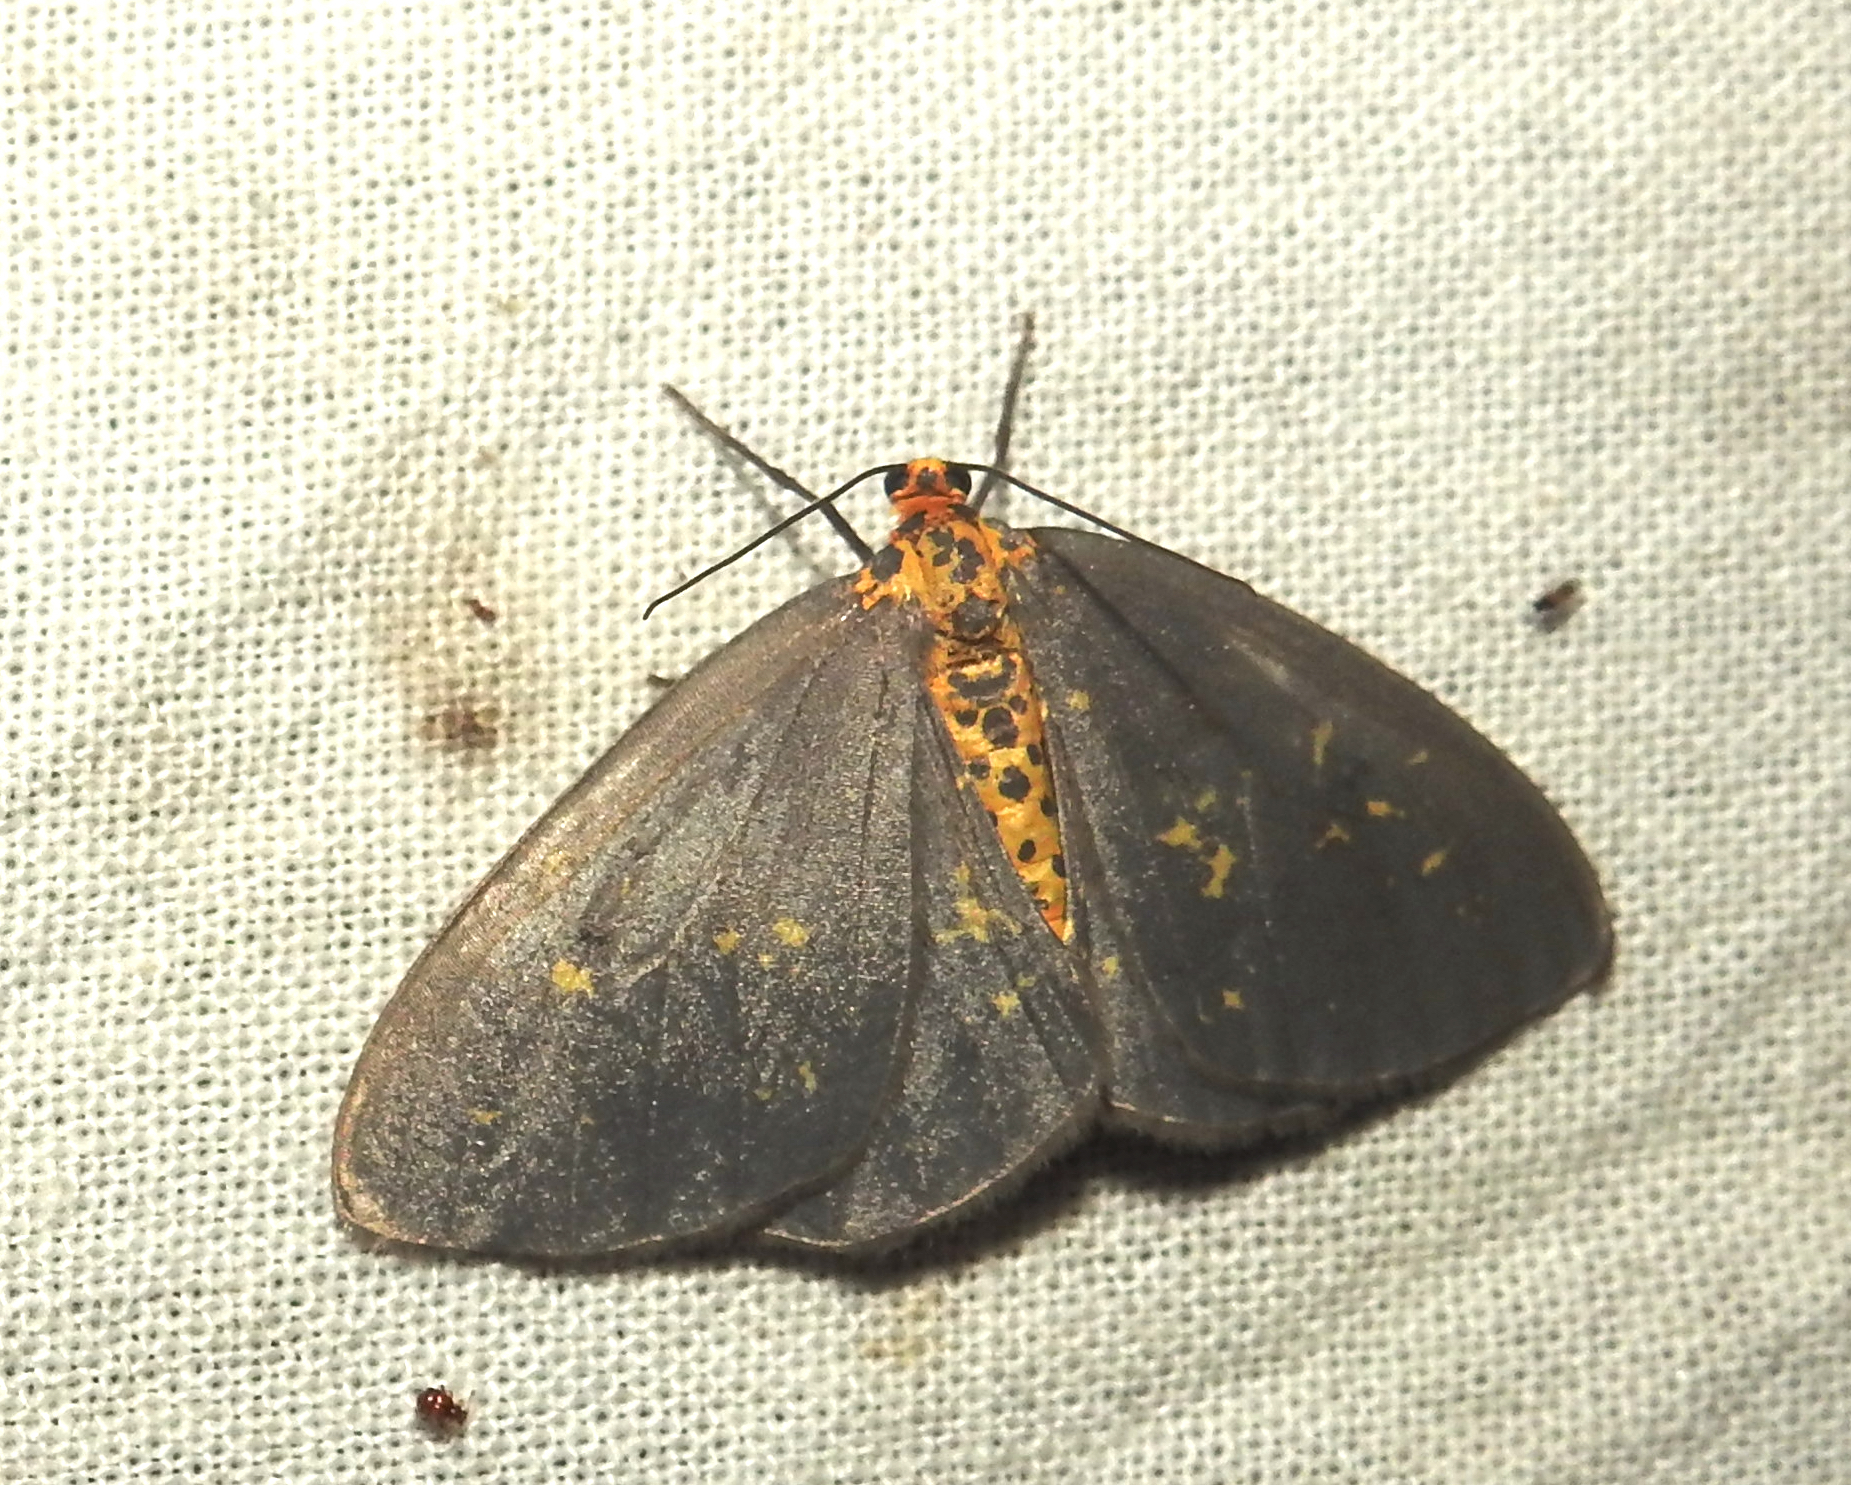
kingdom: Animalia
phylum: Arthropoda
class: Insecta
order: Lepidoptera
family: Geometridae
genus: Abraxas
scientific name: Abraxas poliaria
